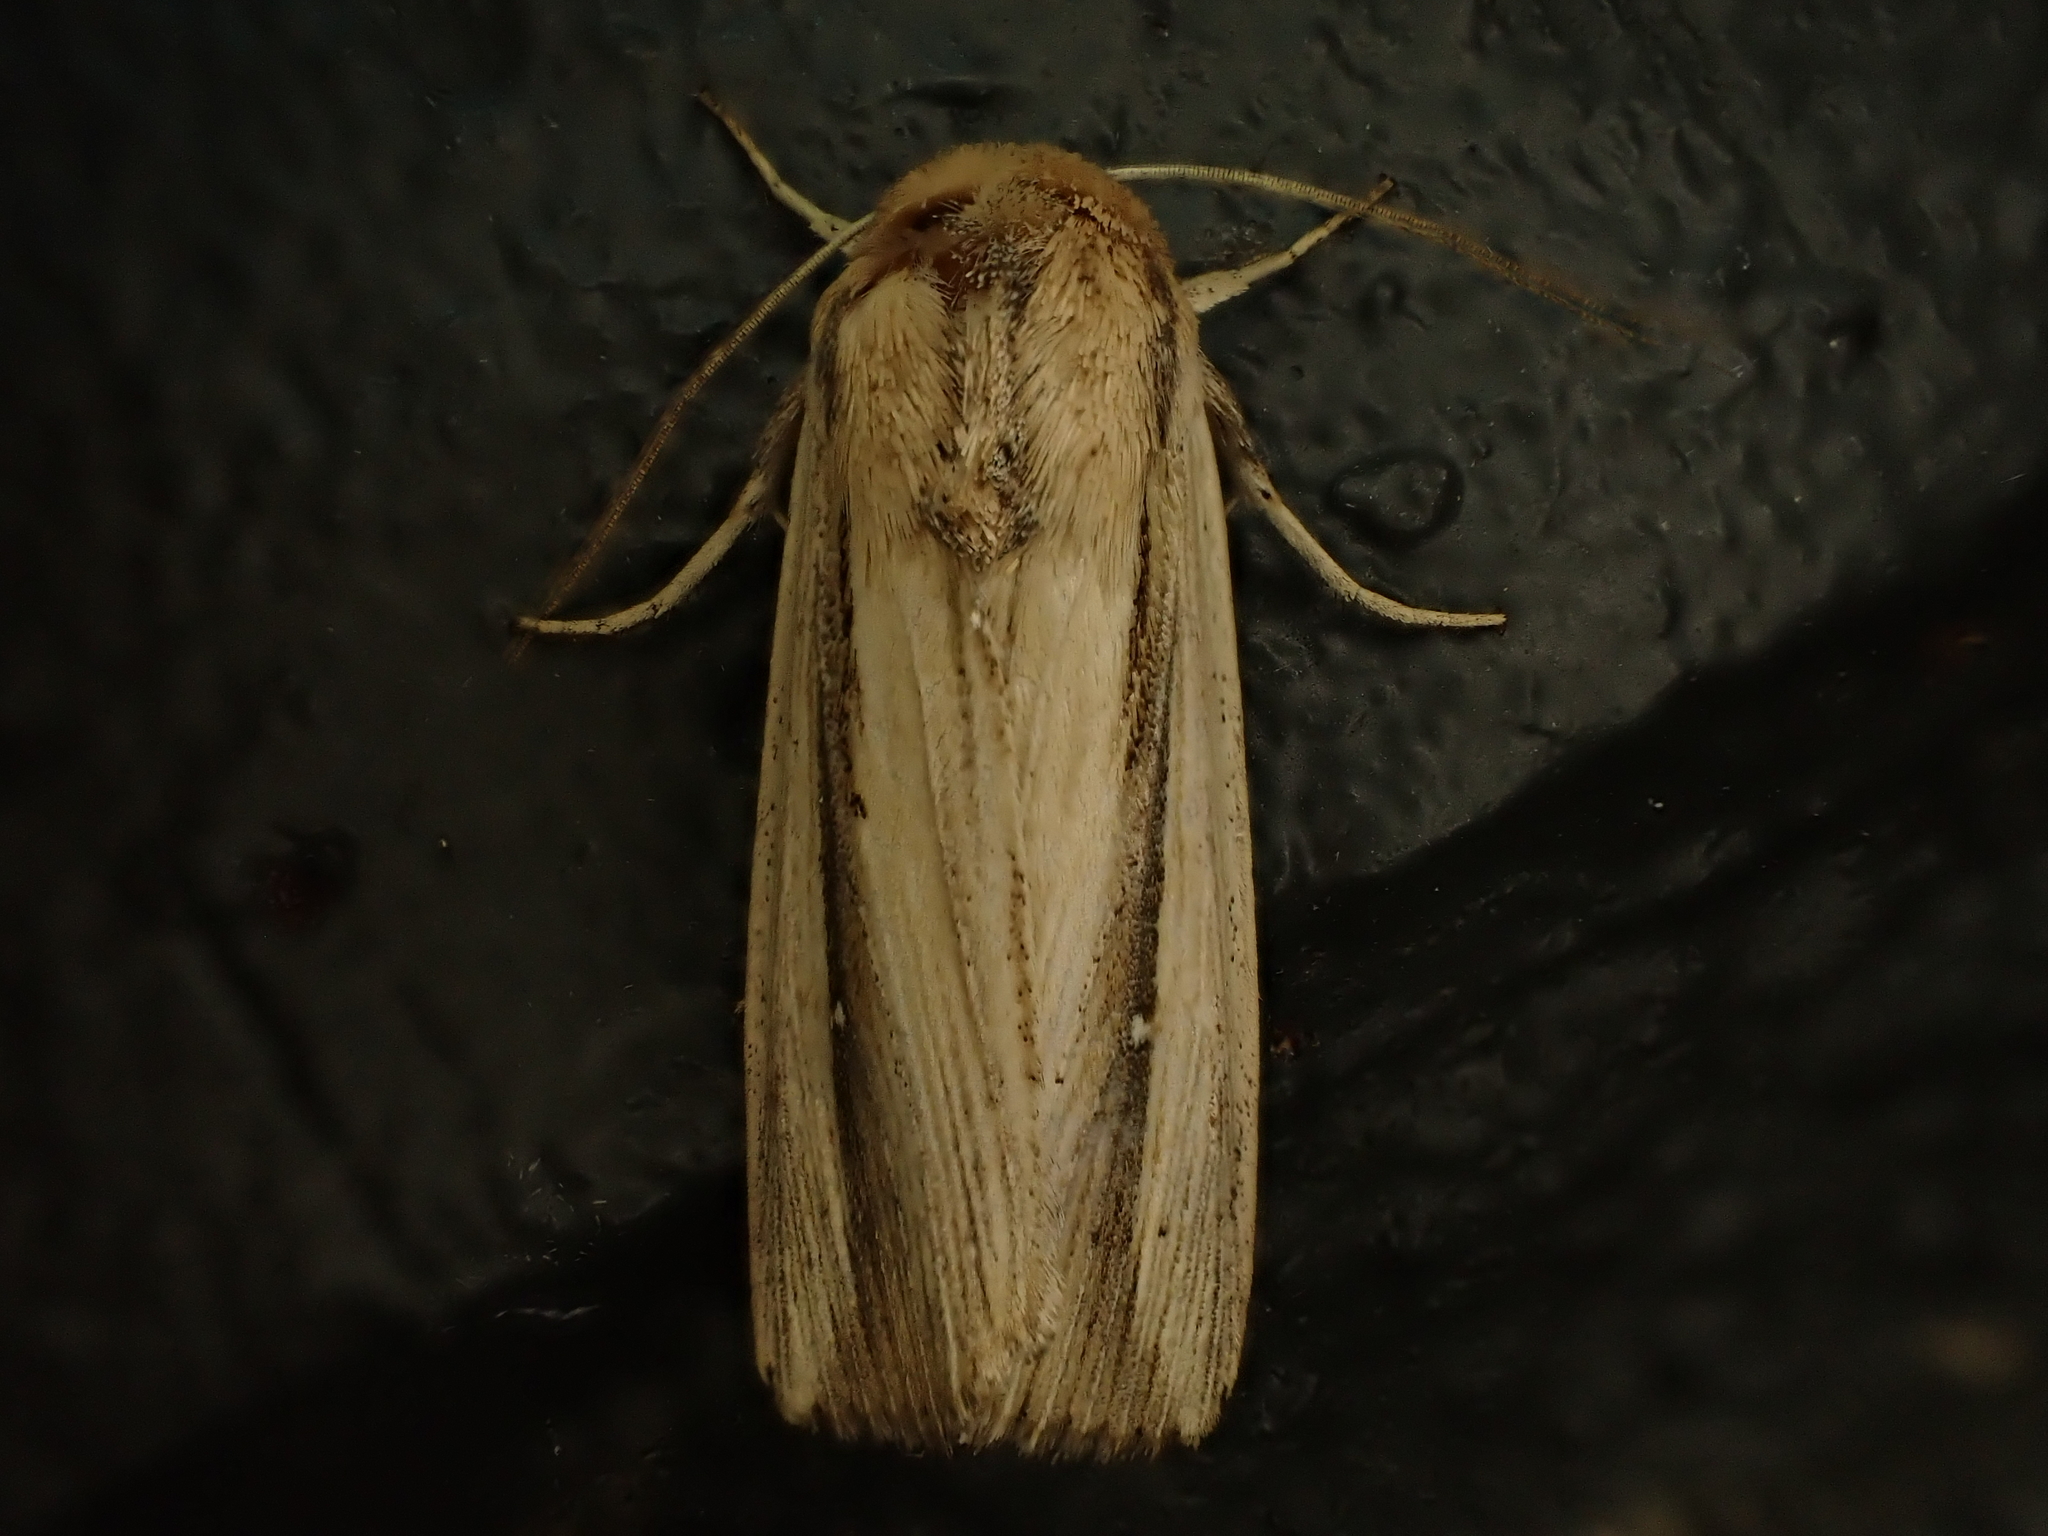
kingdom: Animalia
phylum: Arthropoda
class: Insecta
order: Lepidoptera
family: Noctuidae
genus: Leucania
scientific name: Leucania stenographa
